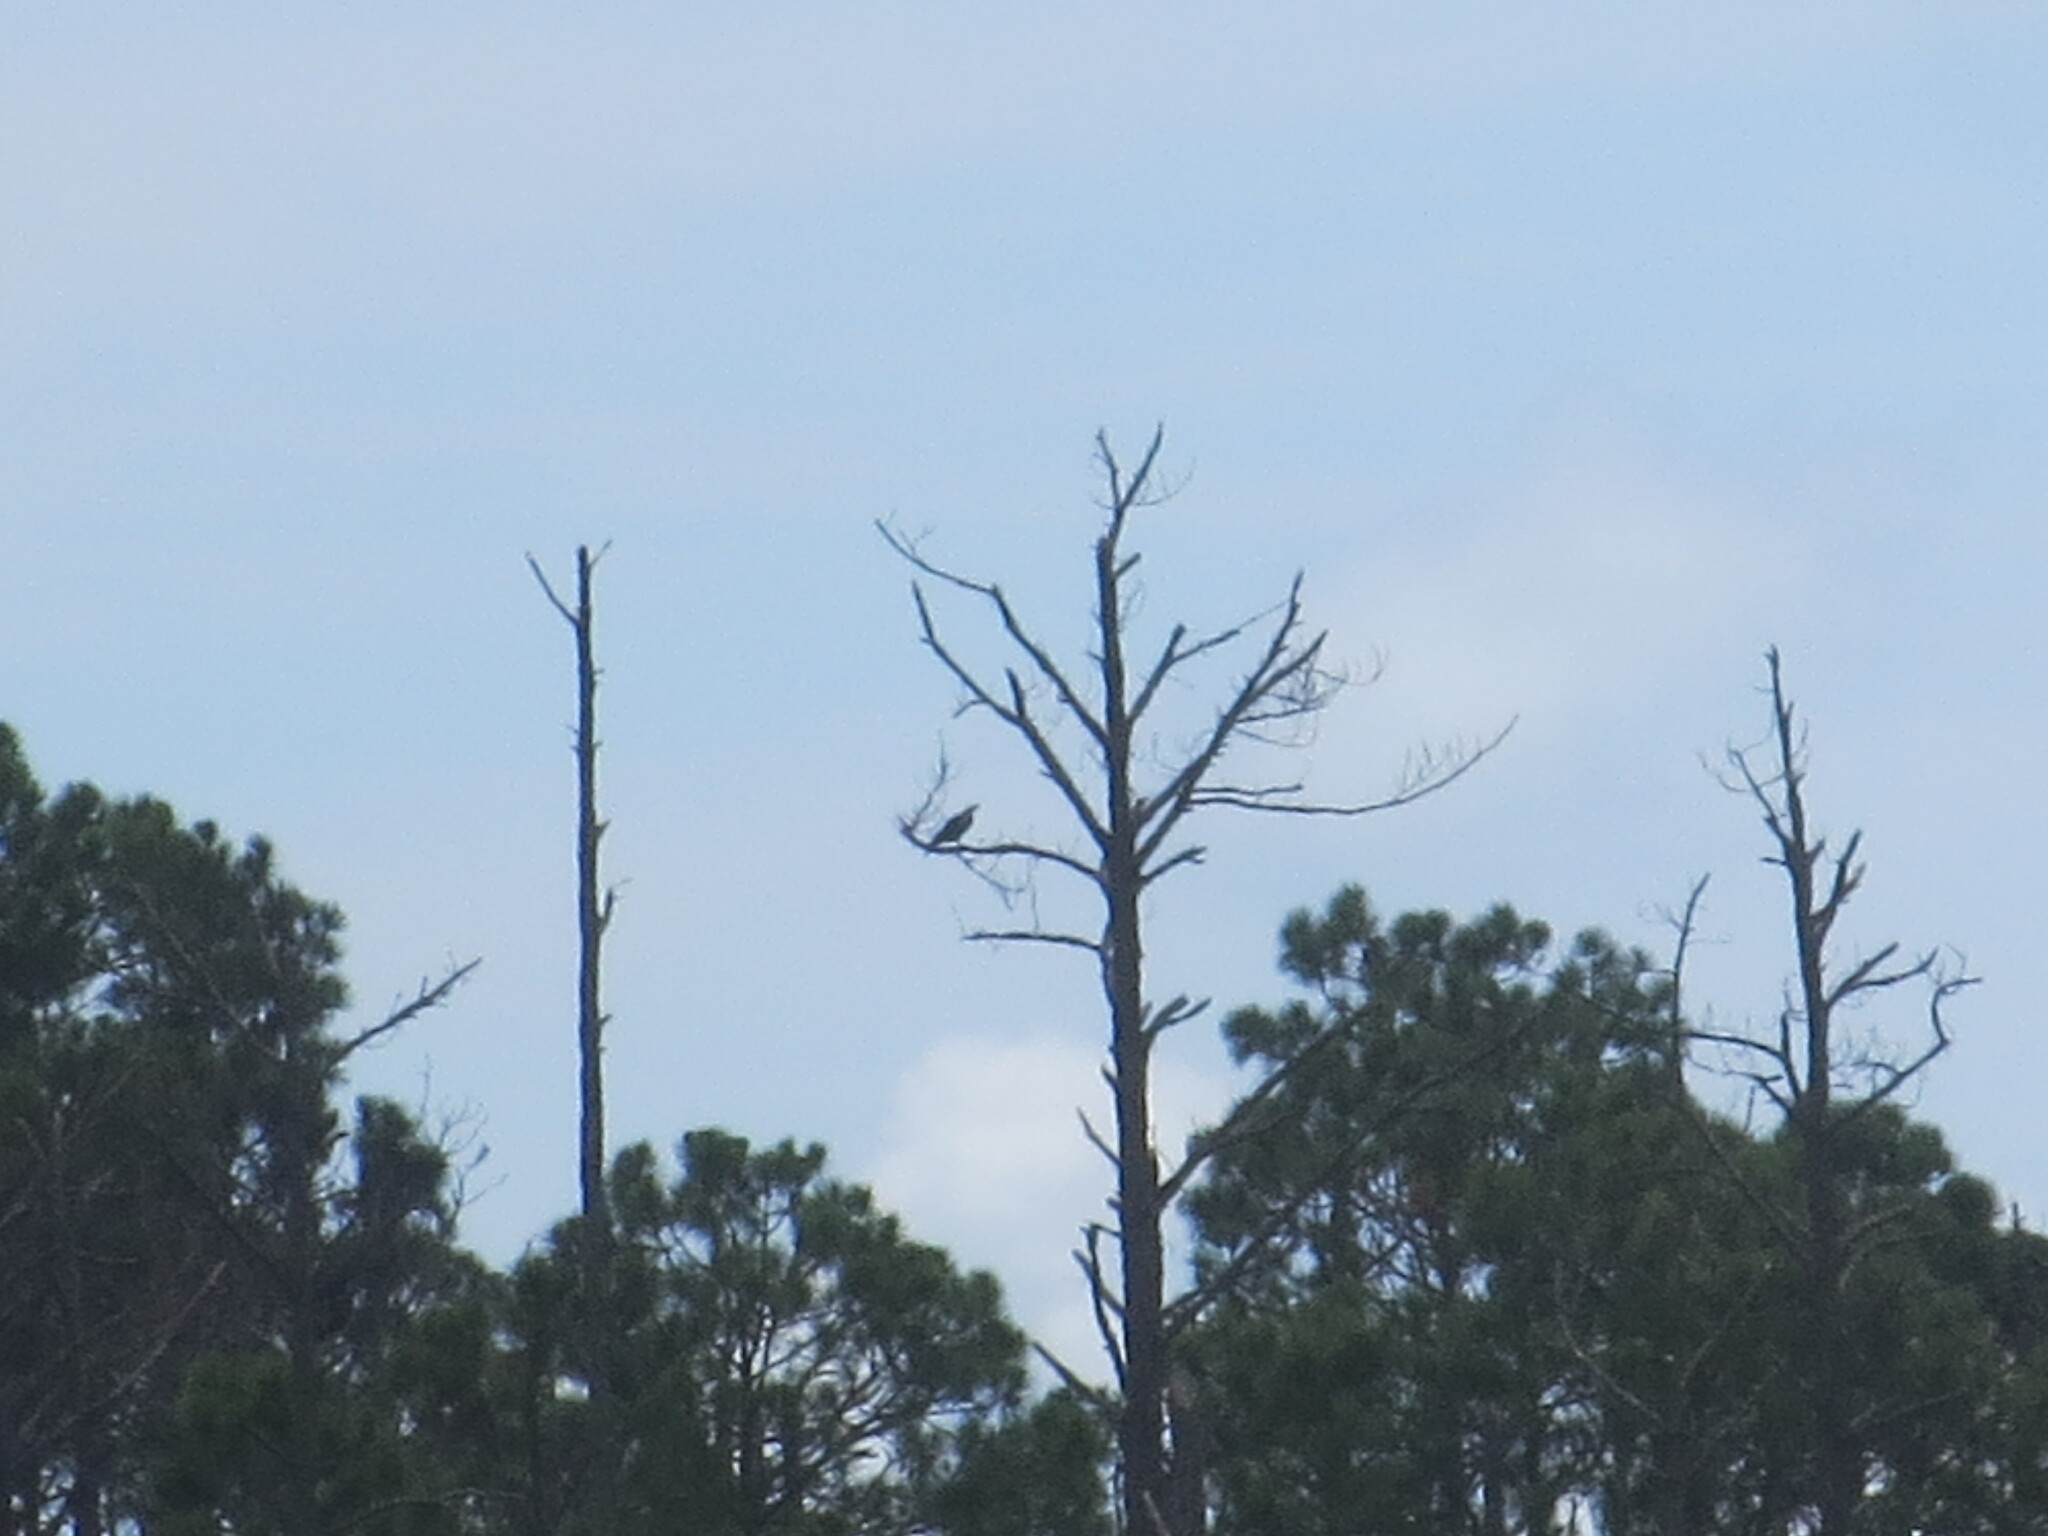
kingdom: Animalia
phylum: Chordata
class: Aves
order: Accipitriformes
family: Pandionidae
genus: Pandion
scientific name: Pandion haliaetus
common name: Osprey
